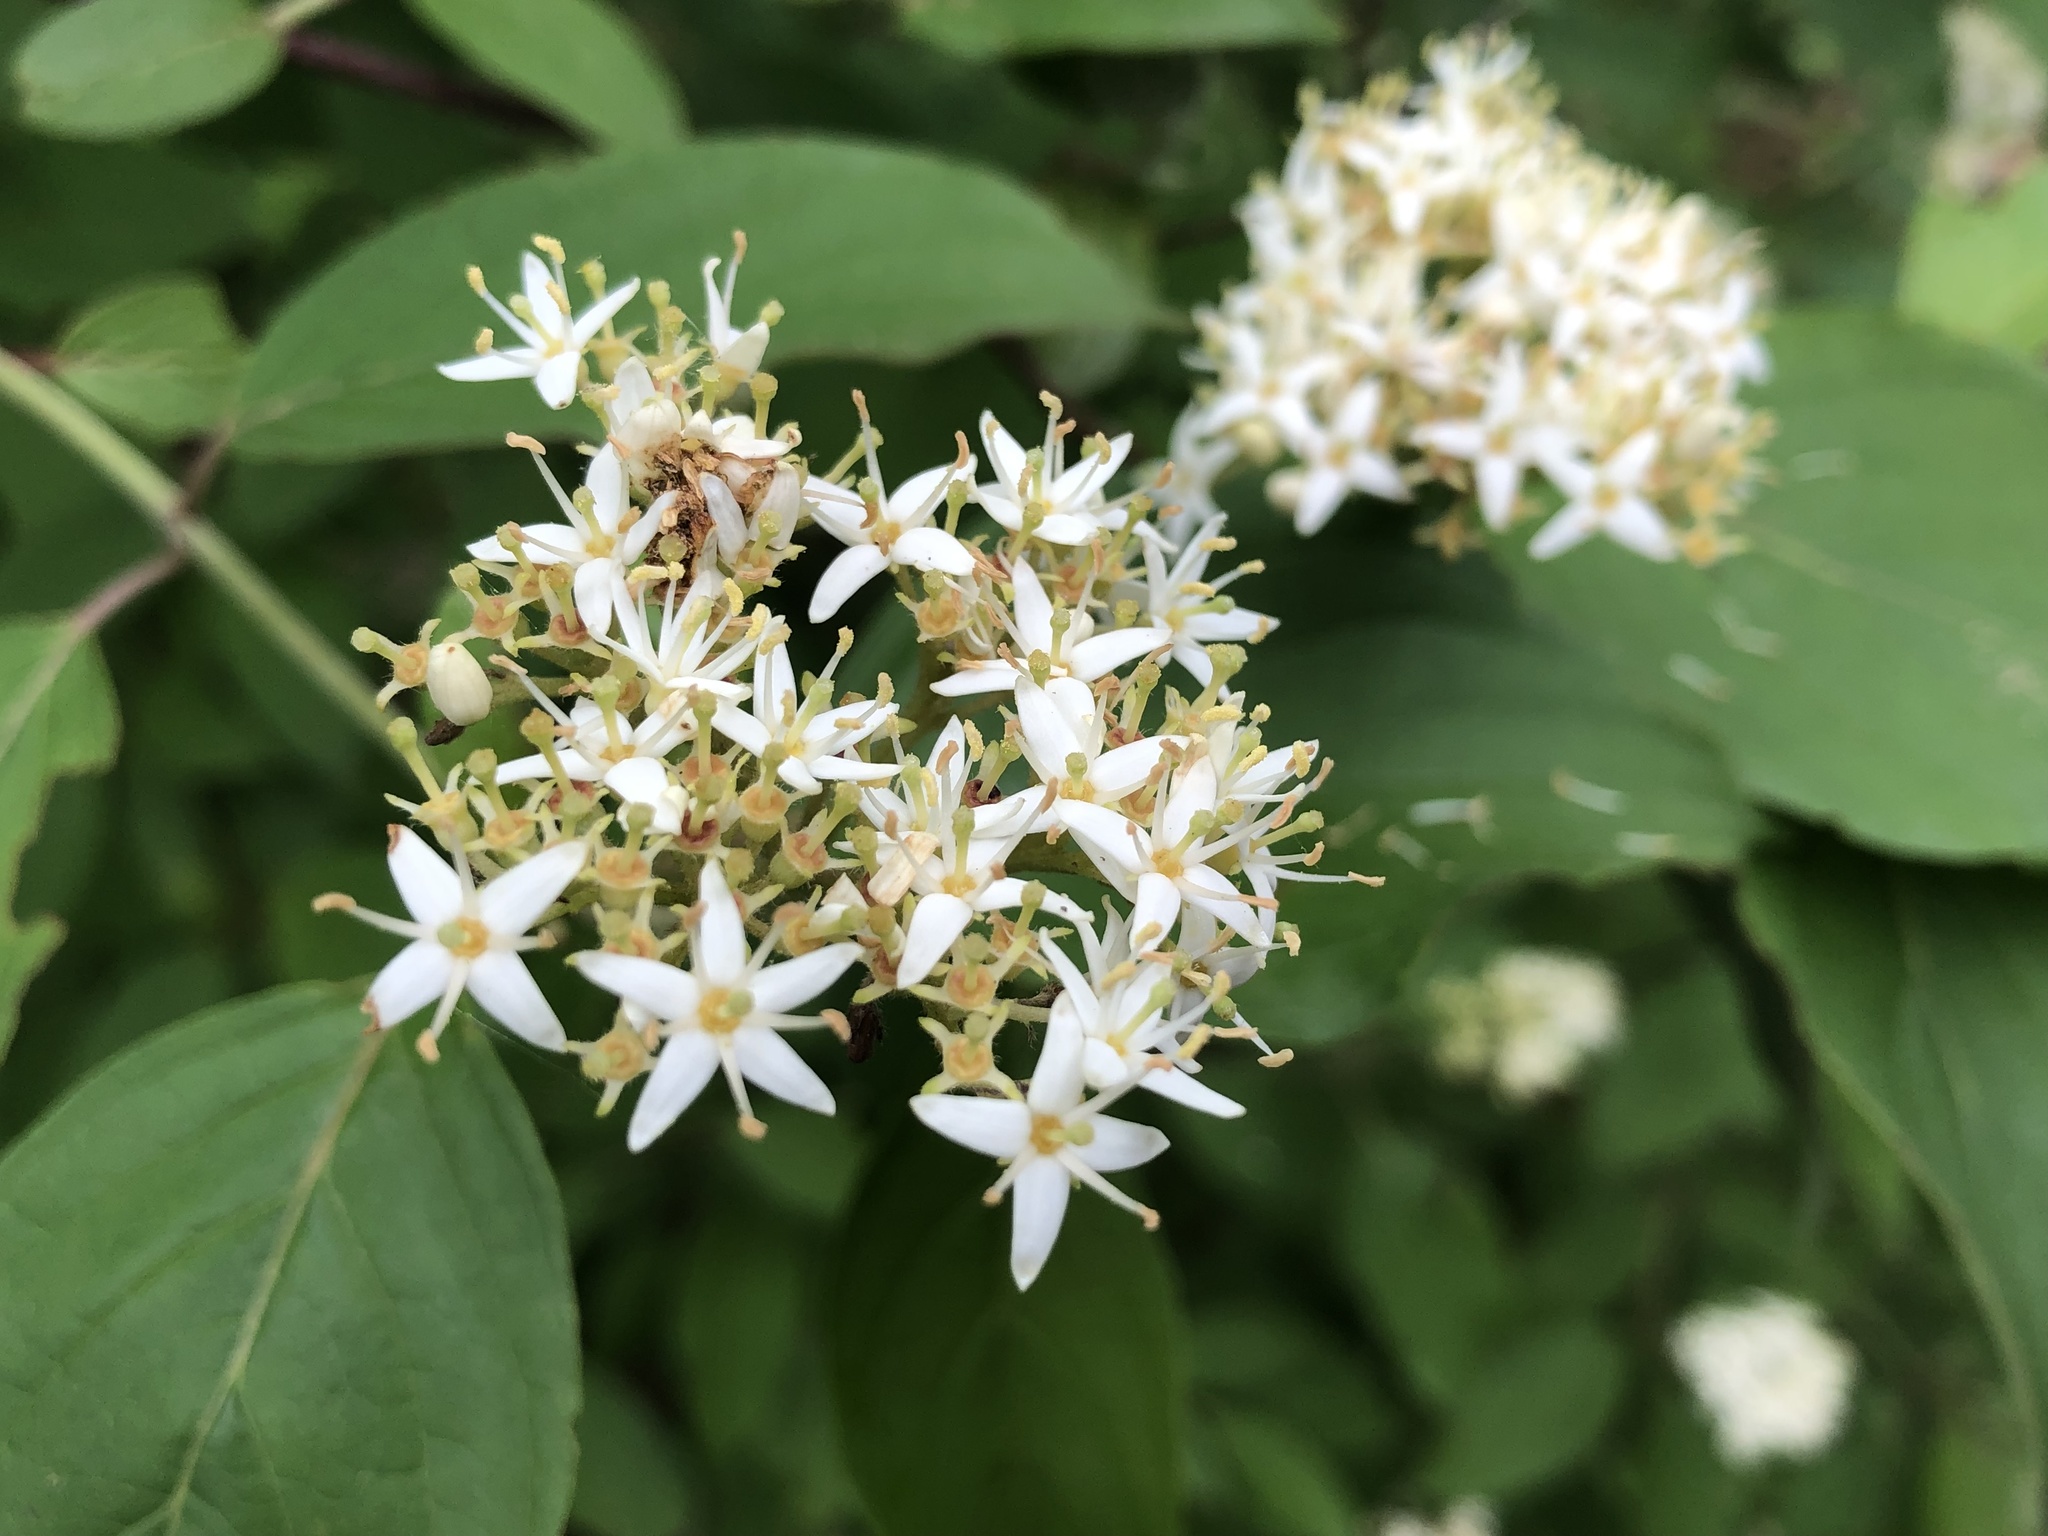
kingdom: Plantae
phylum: Tracheophyta
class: Magnoliopsida
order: Cornales
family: Cornaceae
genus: Cornus
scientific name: Cornus obliqua
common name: Pale dogwood
